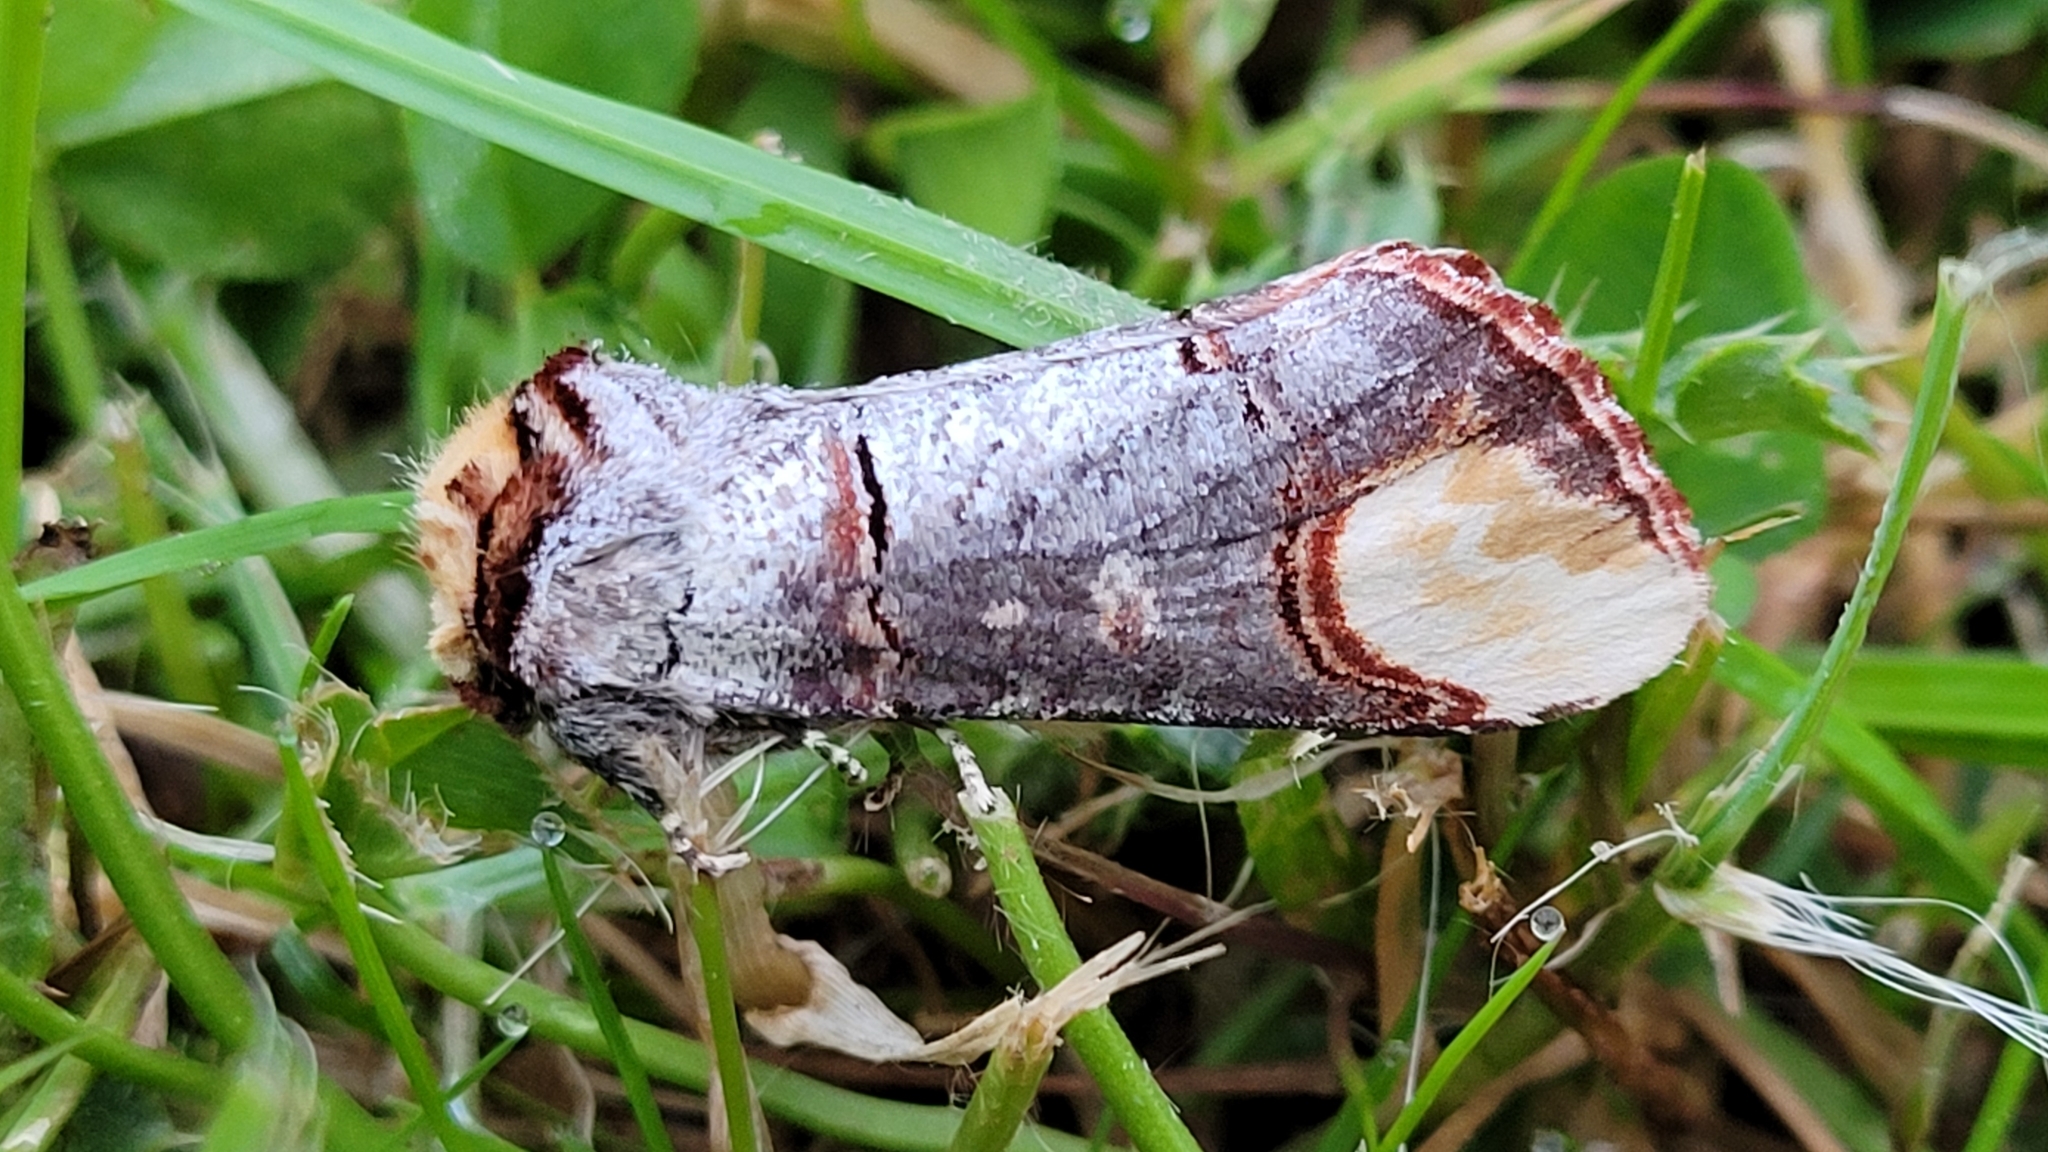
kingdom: Animalia
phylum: Arthropoda
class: Insecta
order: Lepidoptera
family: Notodontidae
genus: Phalera
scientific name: Phalera bucephala
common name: Buff-tip
